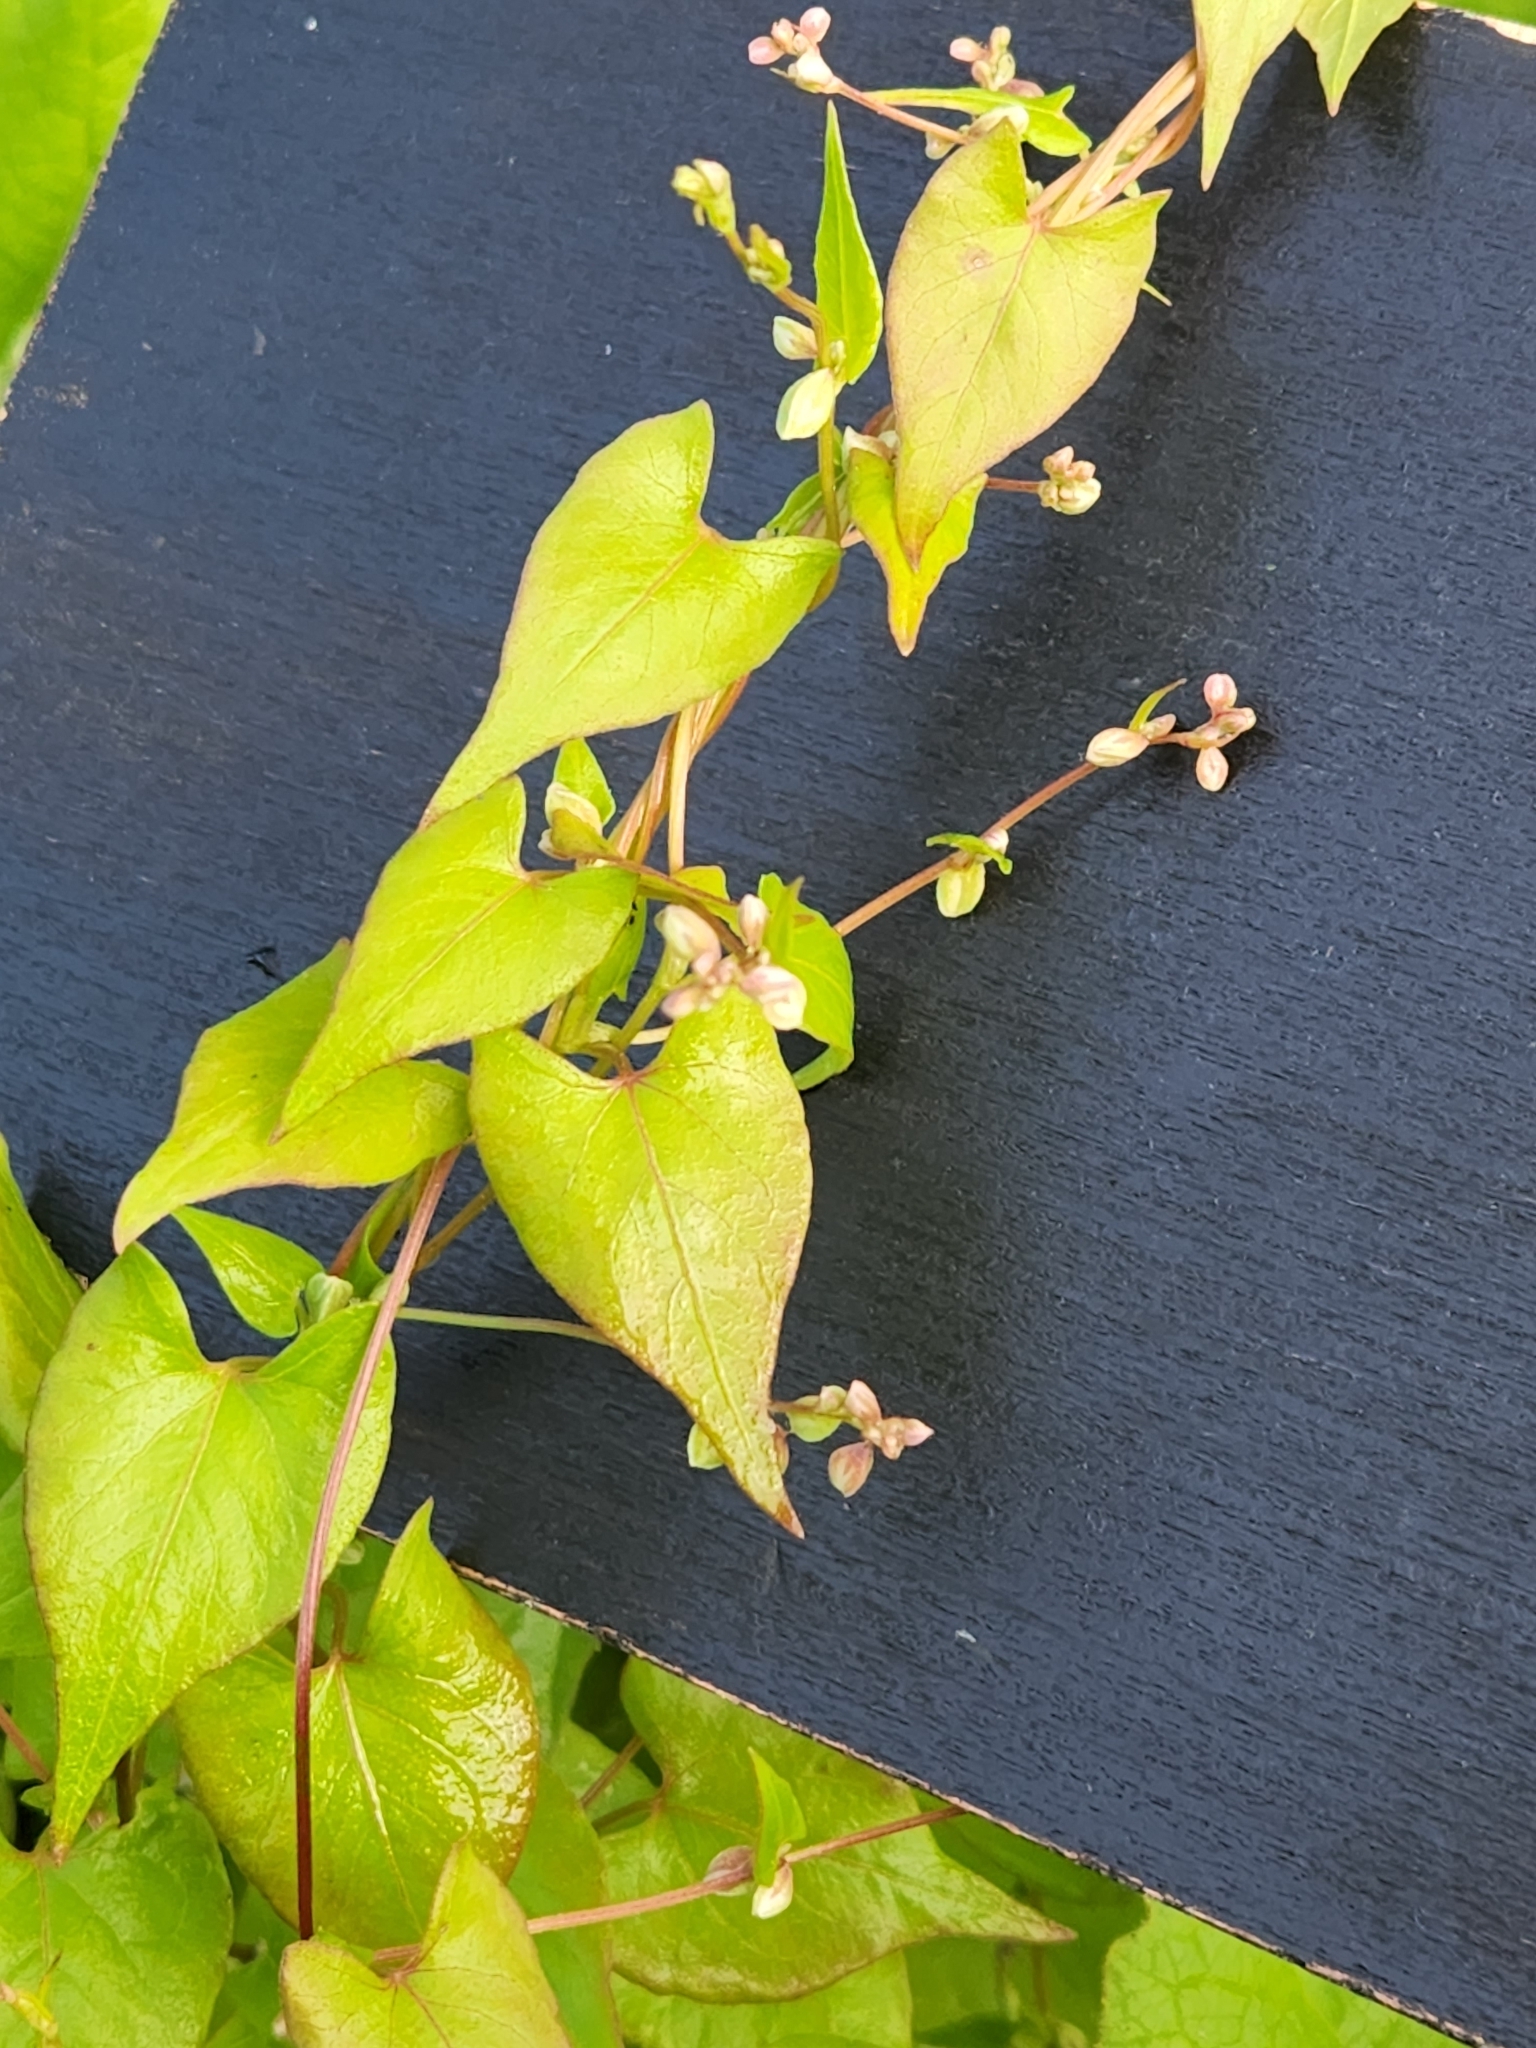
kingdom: Plantae
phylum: Tracheophyta
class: Magnoliopsida
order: Caryophyllales
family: Polygonaceae
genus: Fallopia
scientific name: Fallopia convolvulus
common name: Black bindweed
